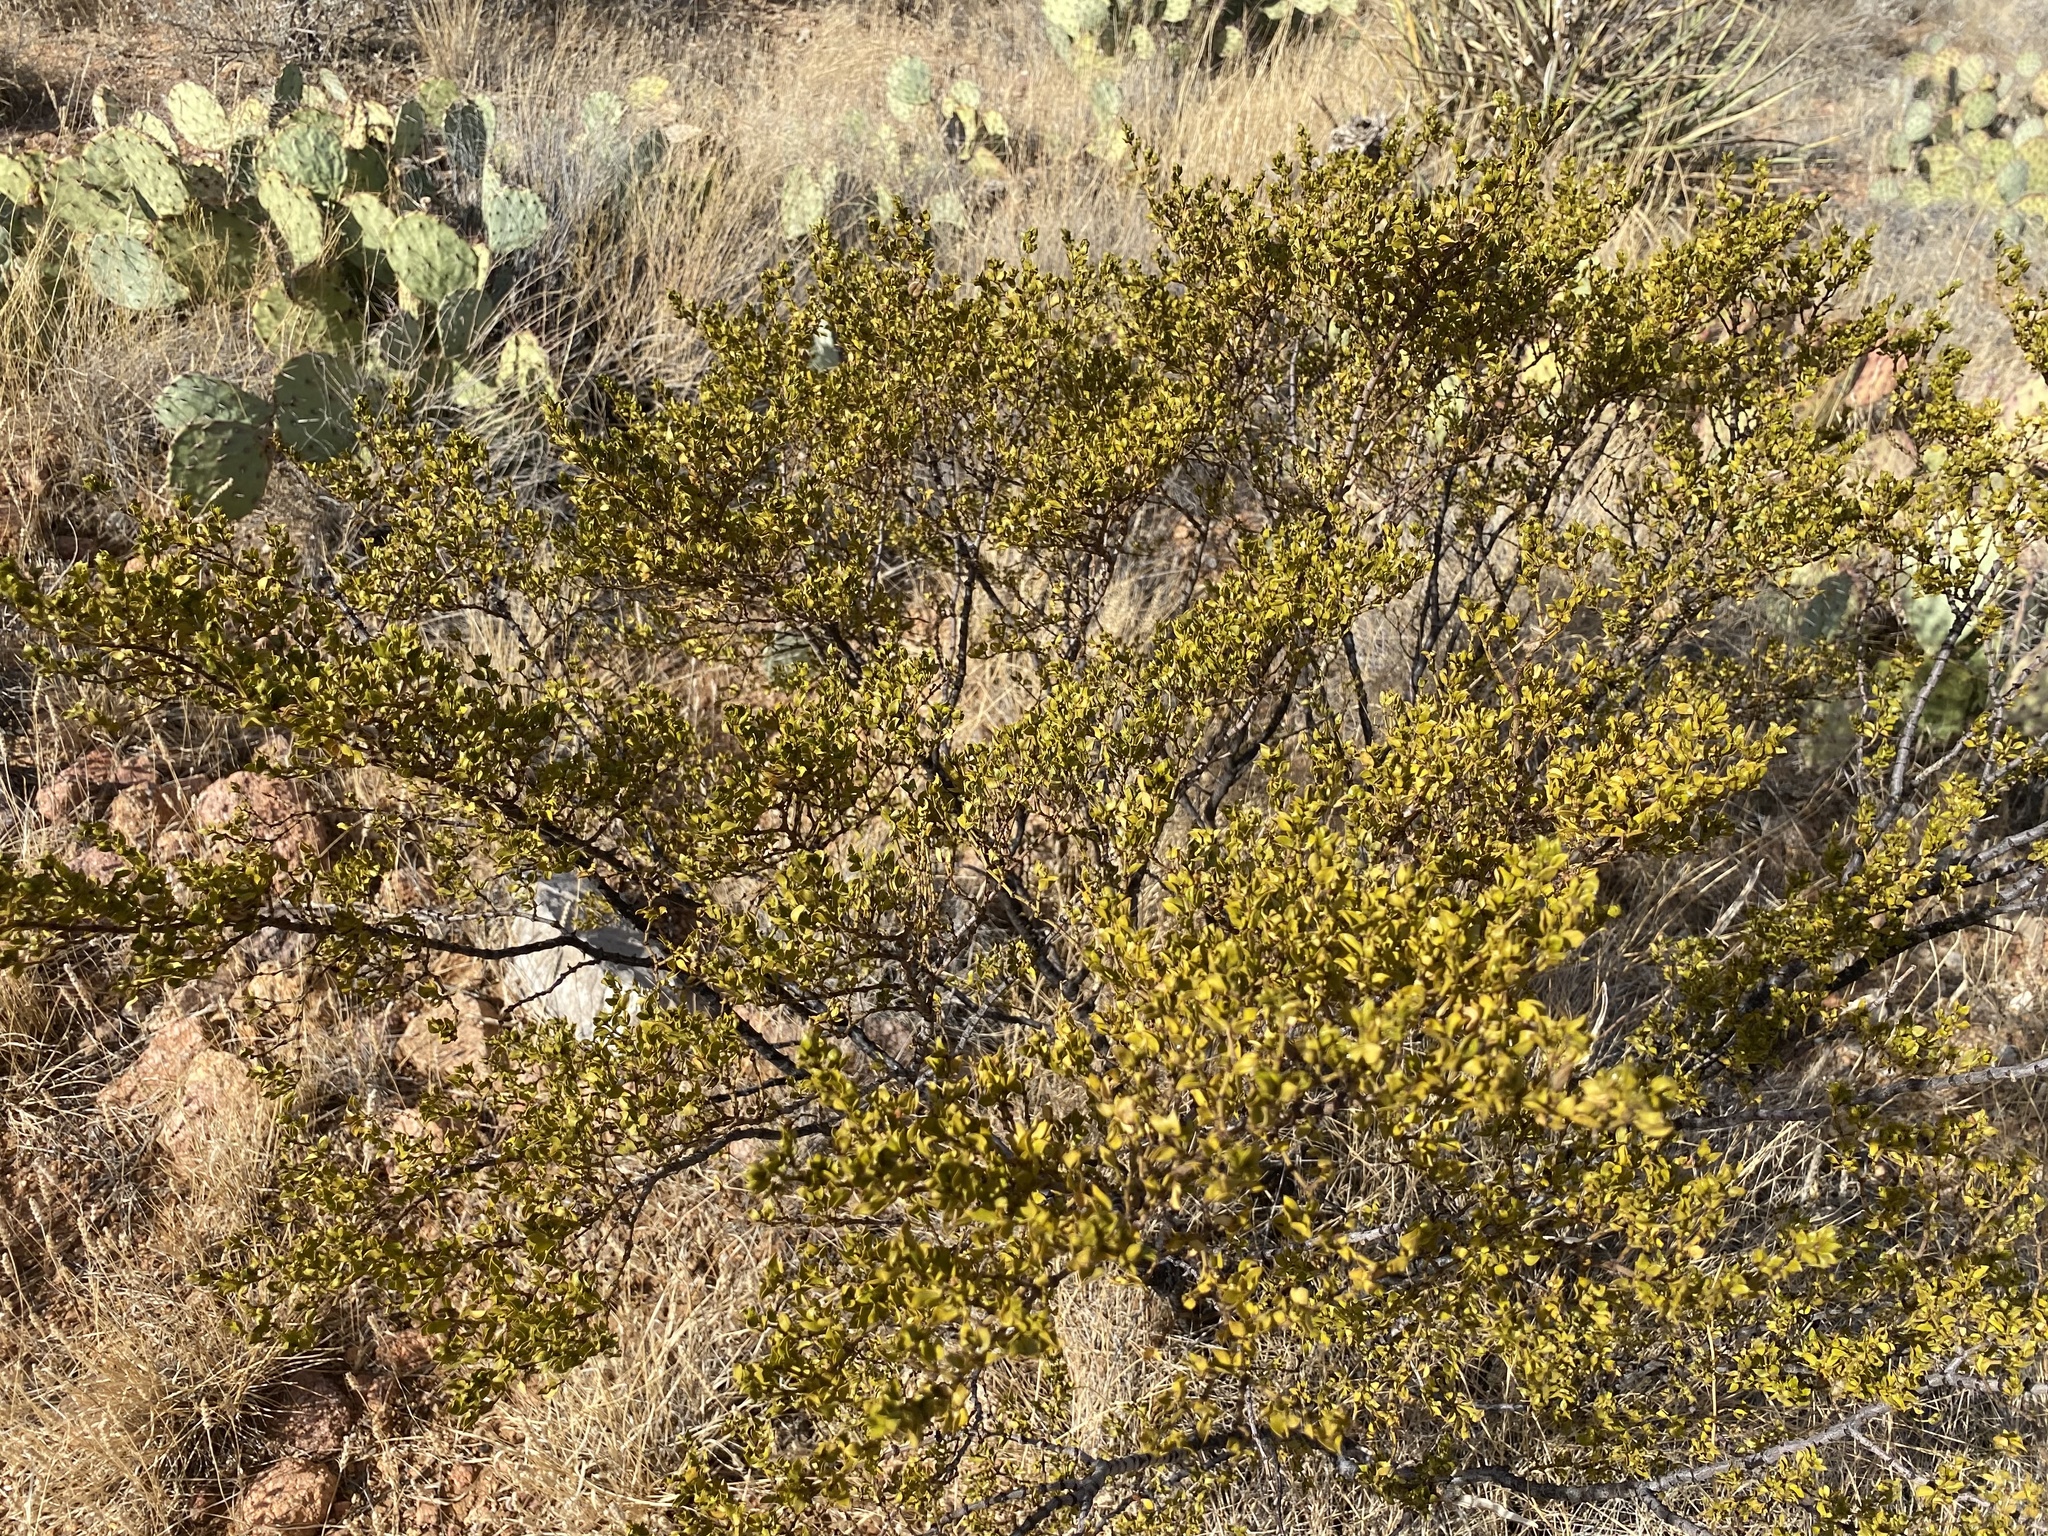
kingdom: Plantae
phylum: Tracheophyta
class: Magnoliopsida
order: Zygophyllales
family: Zygophyllaceae
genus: Larrea
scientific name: Larrea tridentata
